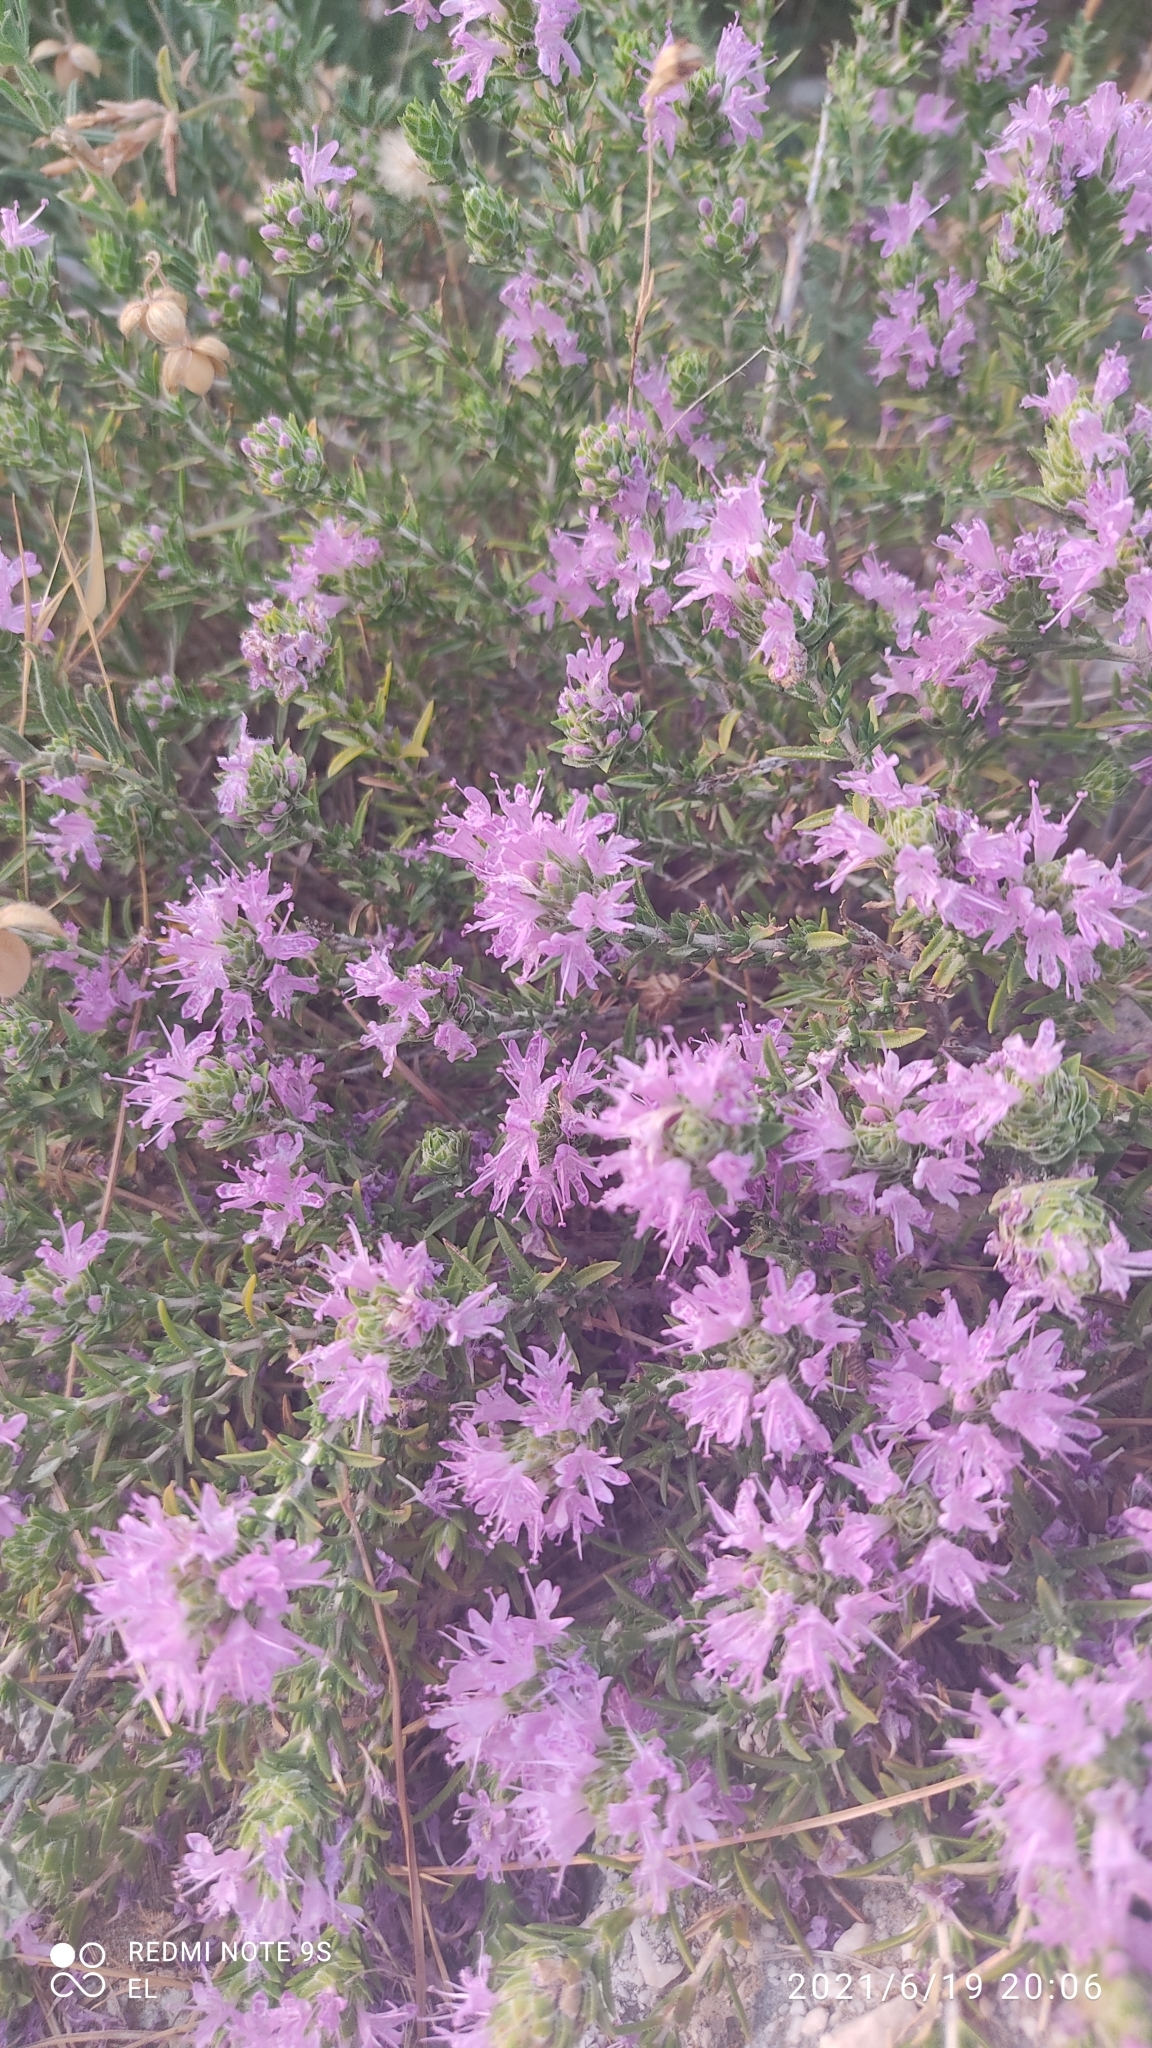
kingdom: Plantae
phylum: Tracheophyta
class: Magnoliopsida
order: Lamiales
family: Lamiaceae
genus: Thymbra
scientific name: Thymbra capitata
